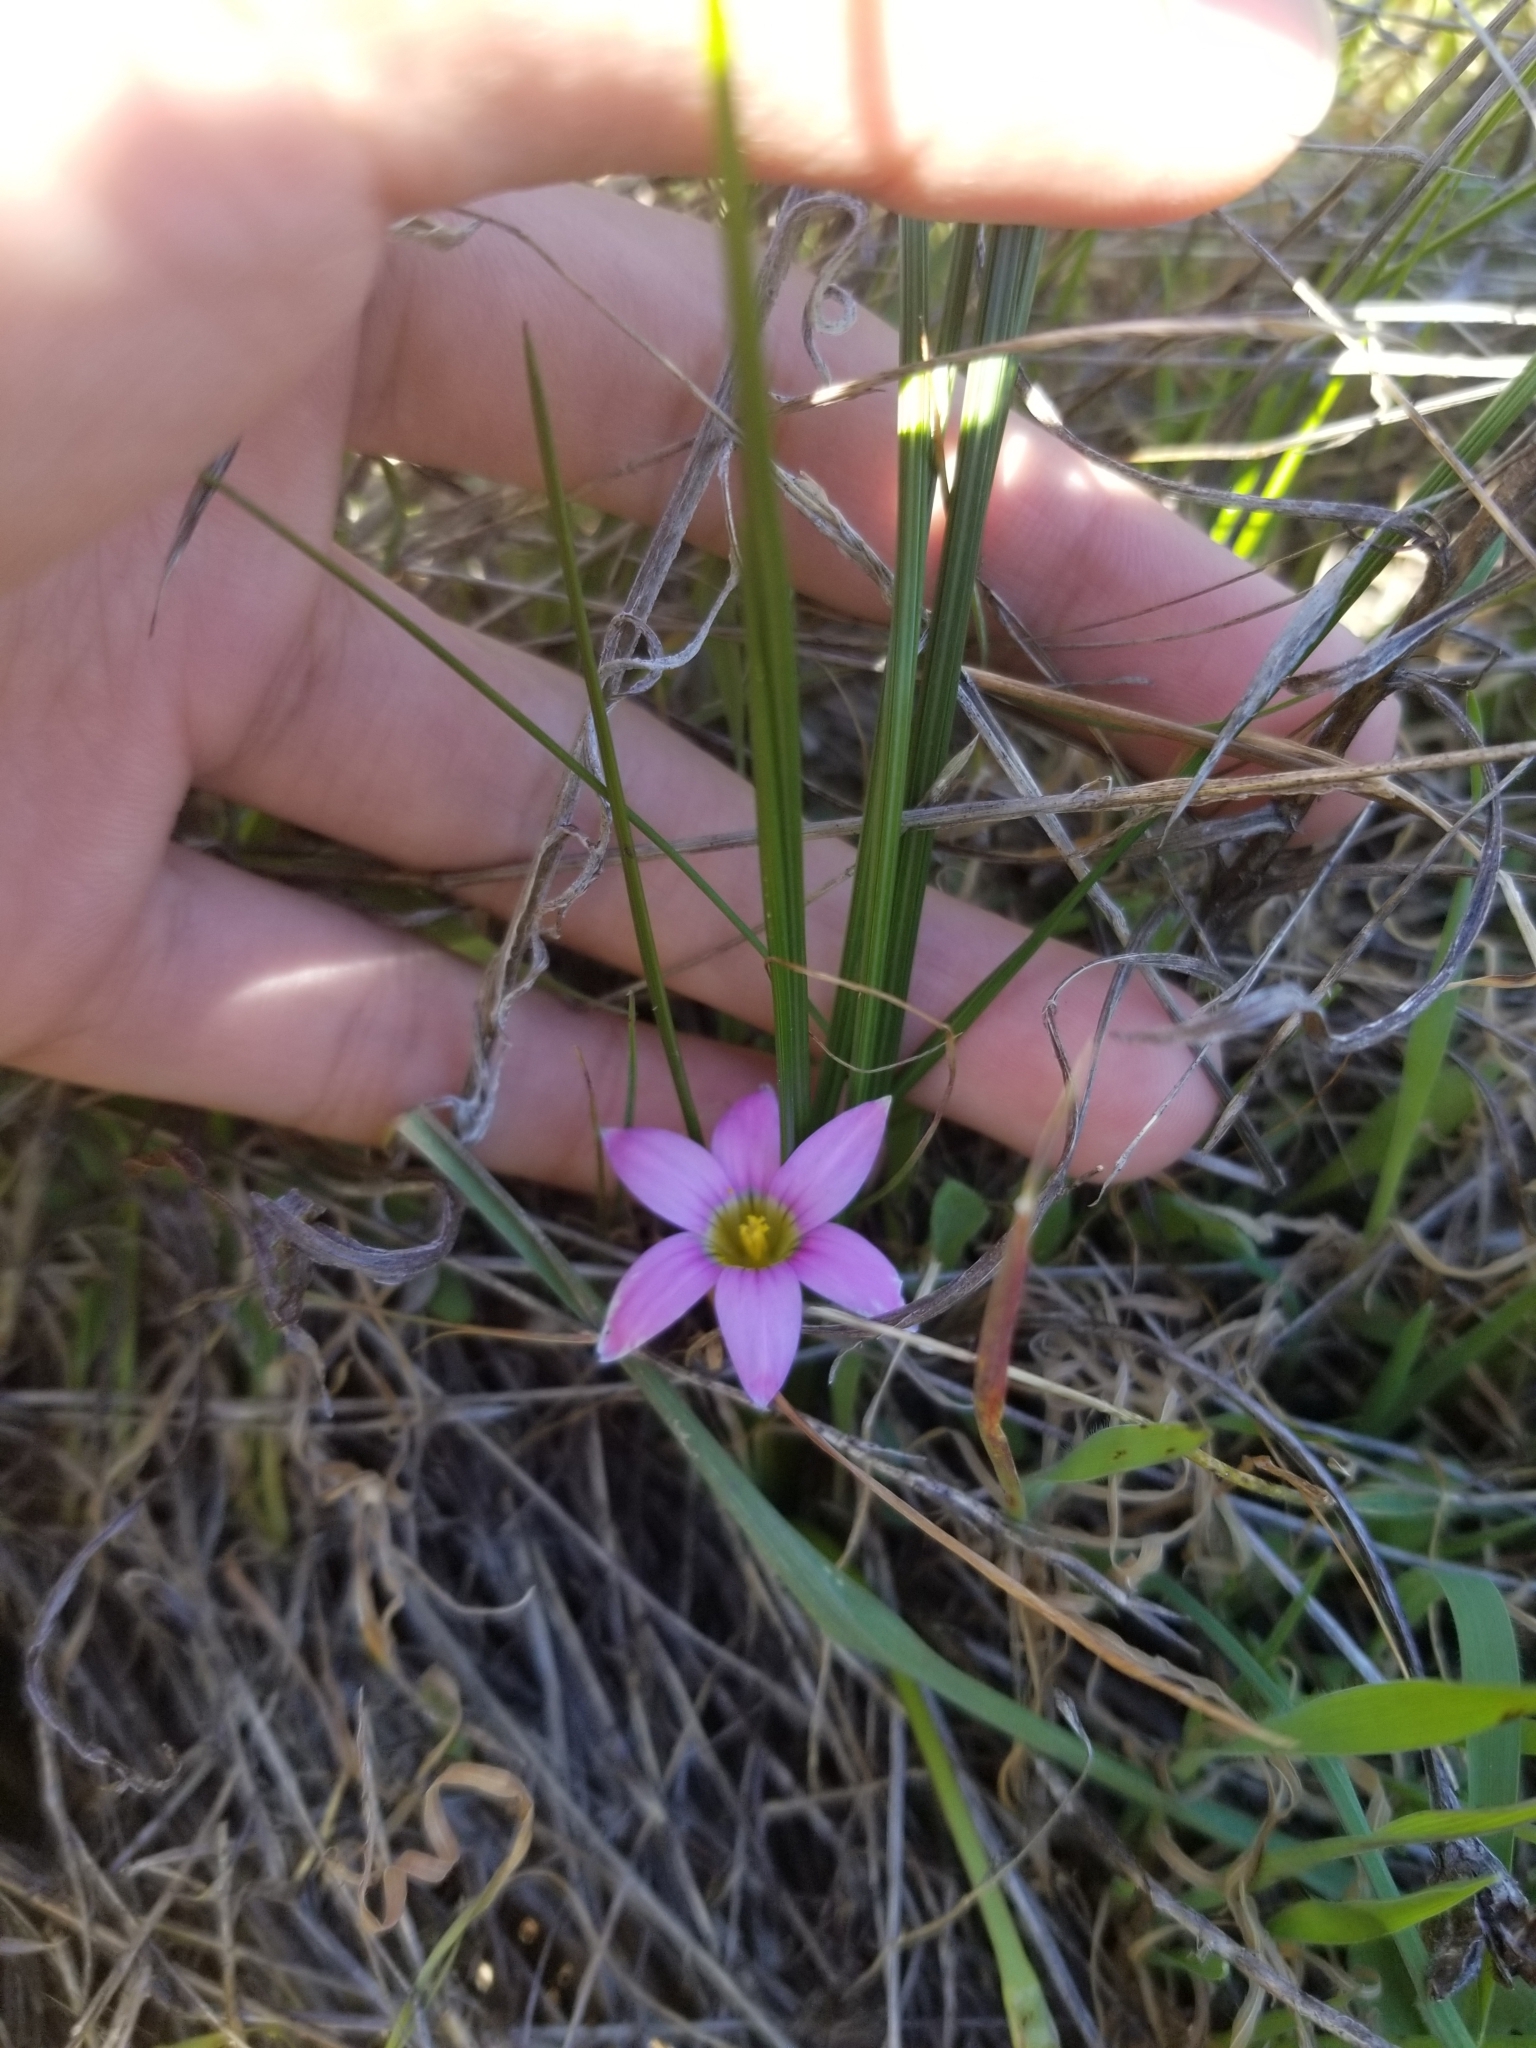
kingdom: Plantae
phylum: Tracheophyta
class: Liliopsida
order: Asparagales
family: Iridaceae
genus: Romulea
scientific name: Romulea rosea
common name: Oniongrass
